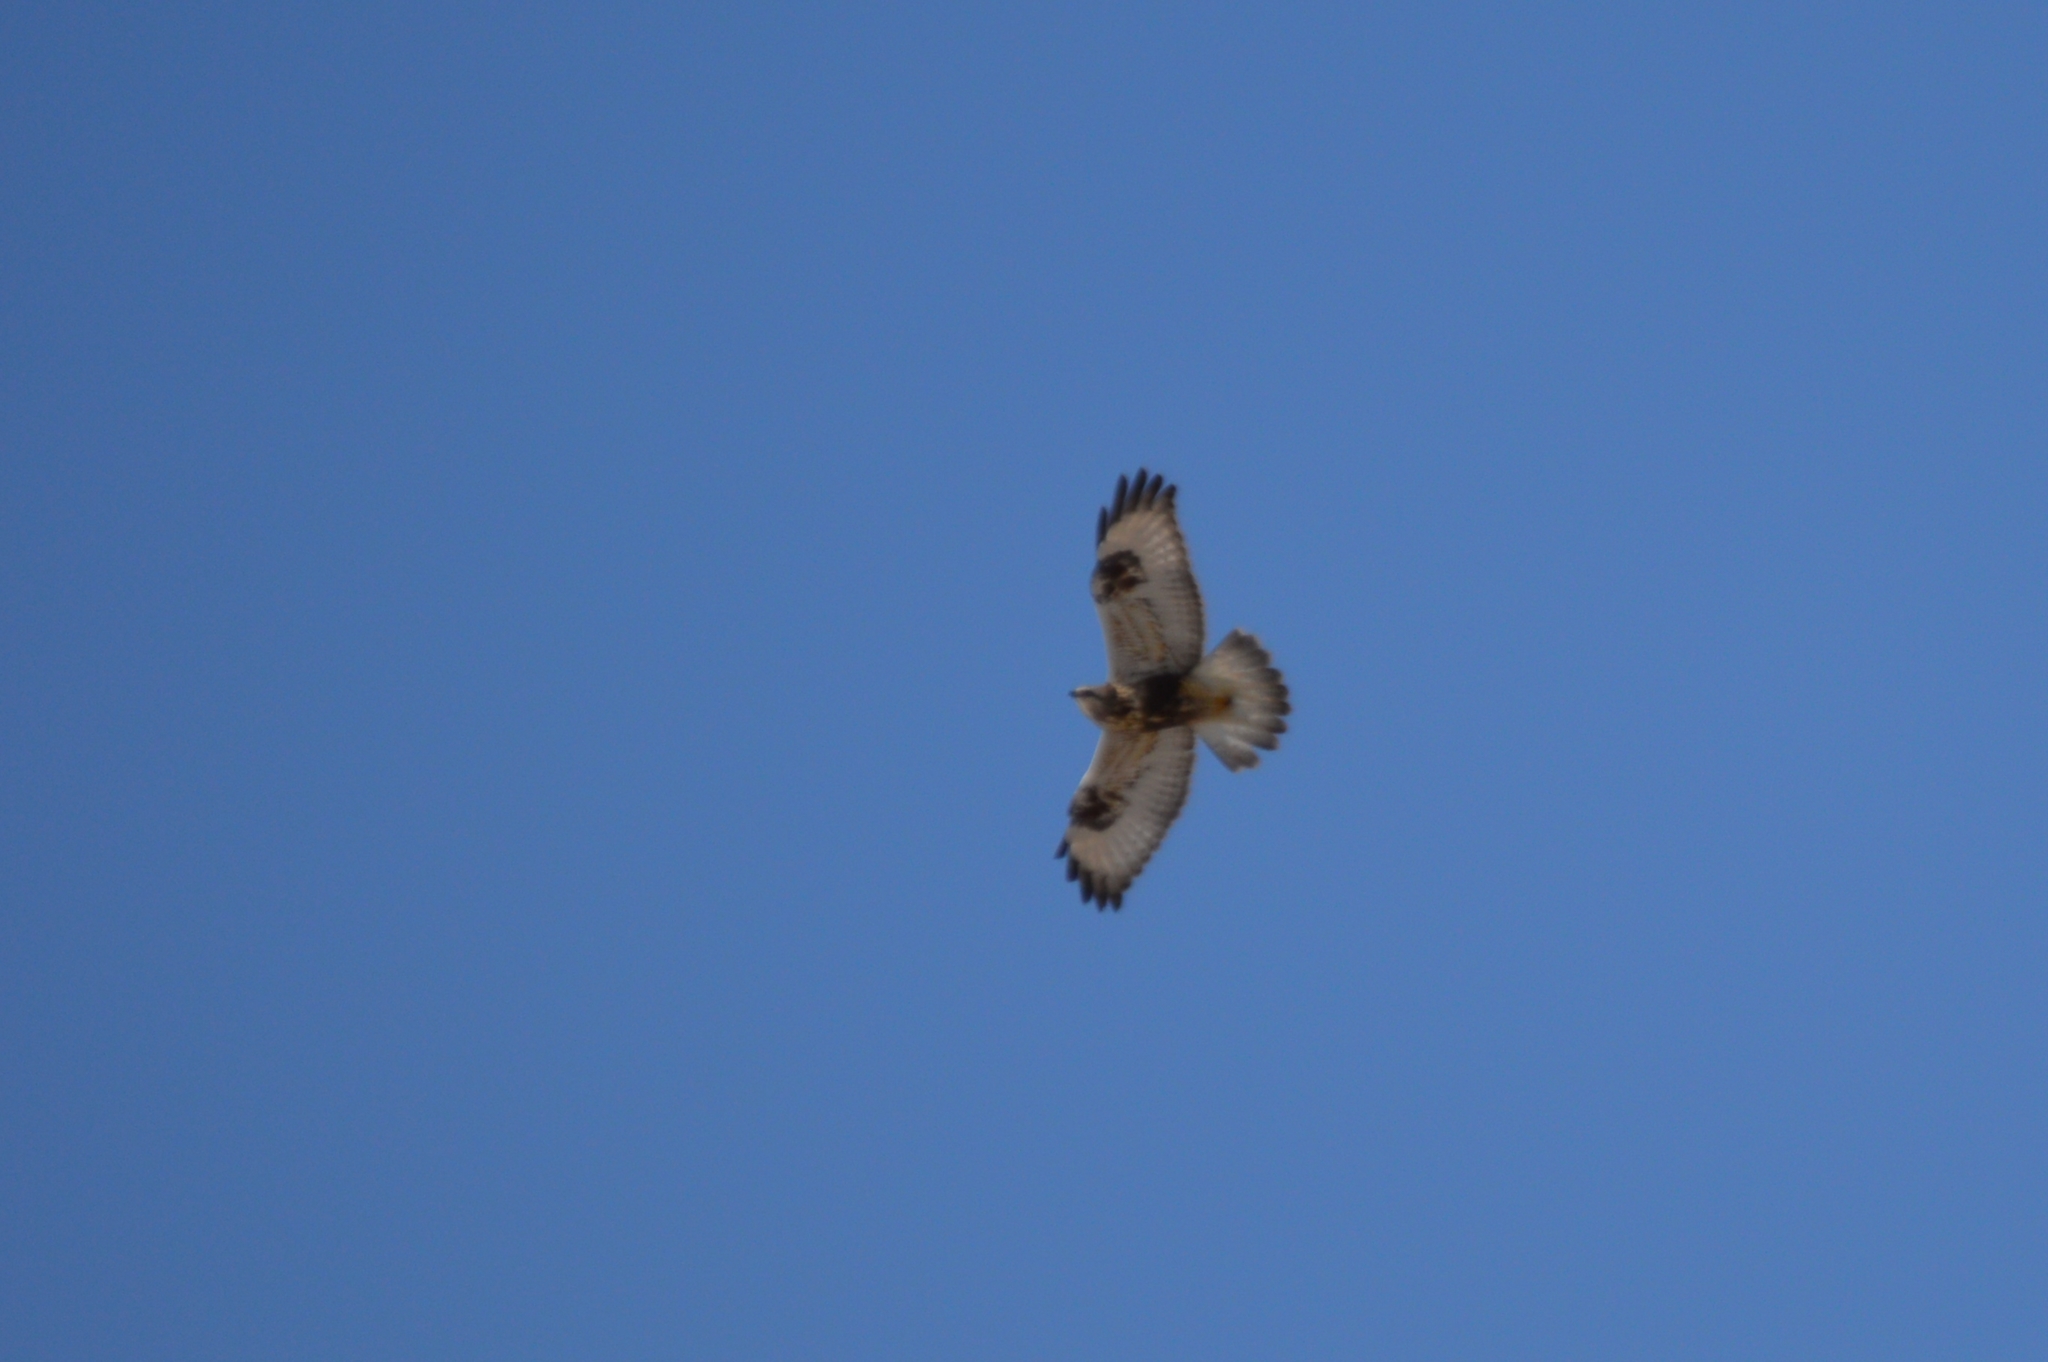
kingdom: Animalia
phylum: Chordata
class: Aves
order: Accipitriformes
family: Accipitridae
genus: Buteo
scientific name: Buteo lagopus
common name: Rough-legged buzzard
